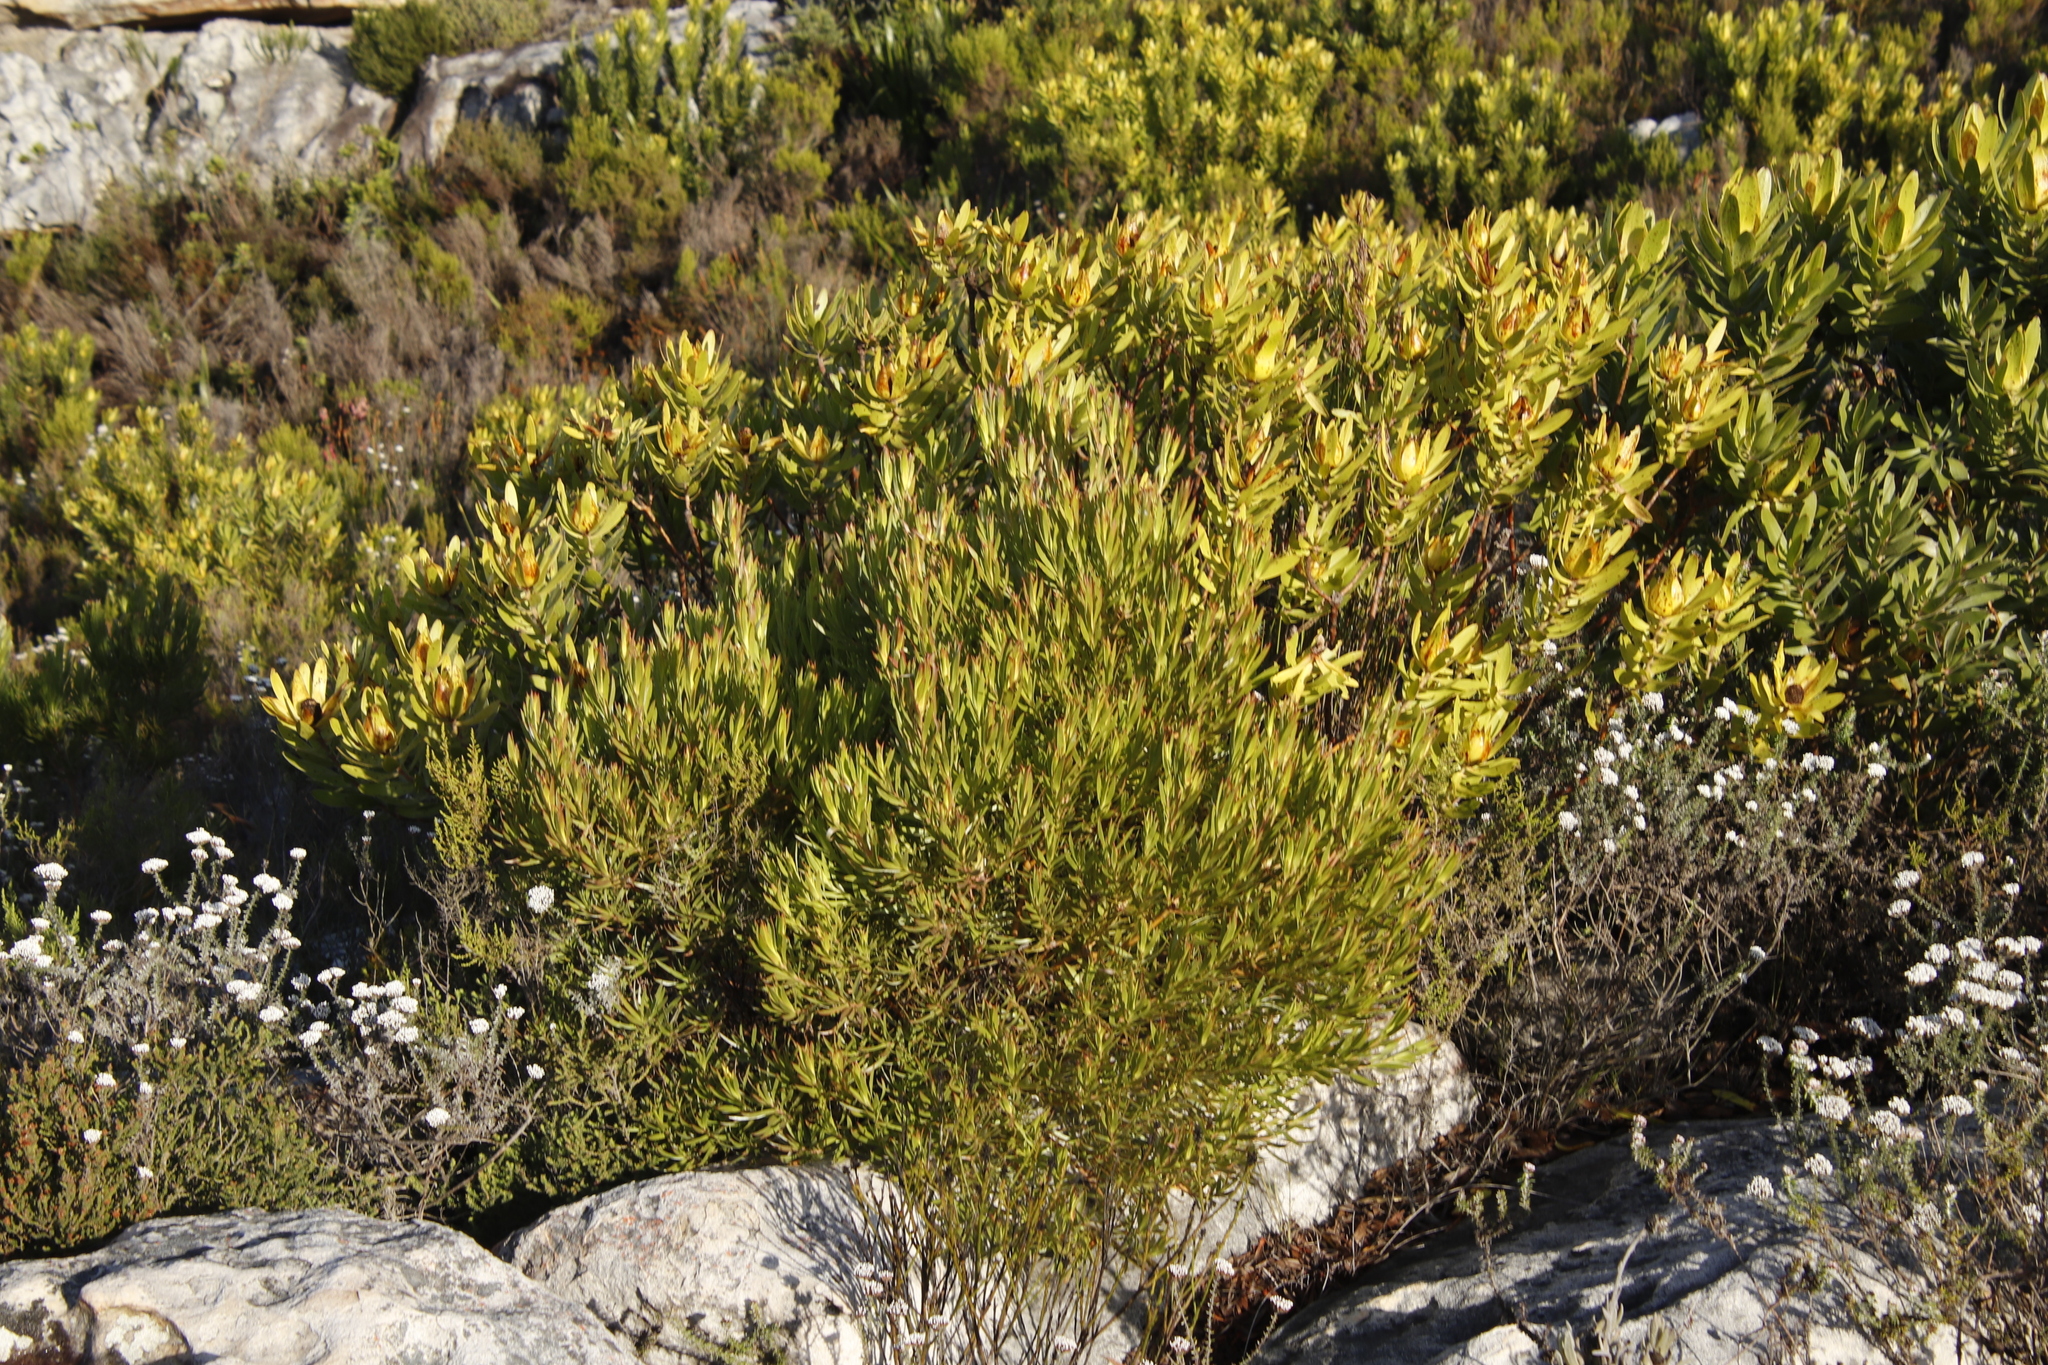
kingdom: Plantae
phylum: Tracheophyta
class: Magnoliopsida
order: Proteales
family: Proteaceae
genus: Leucadendron
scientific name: Leucadendron xanthoconus
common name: Sickle-leaf conebush
